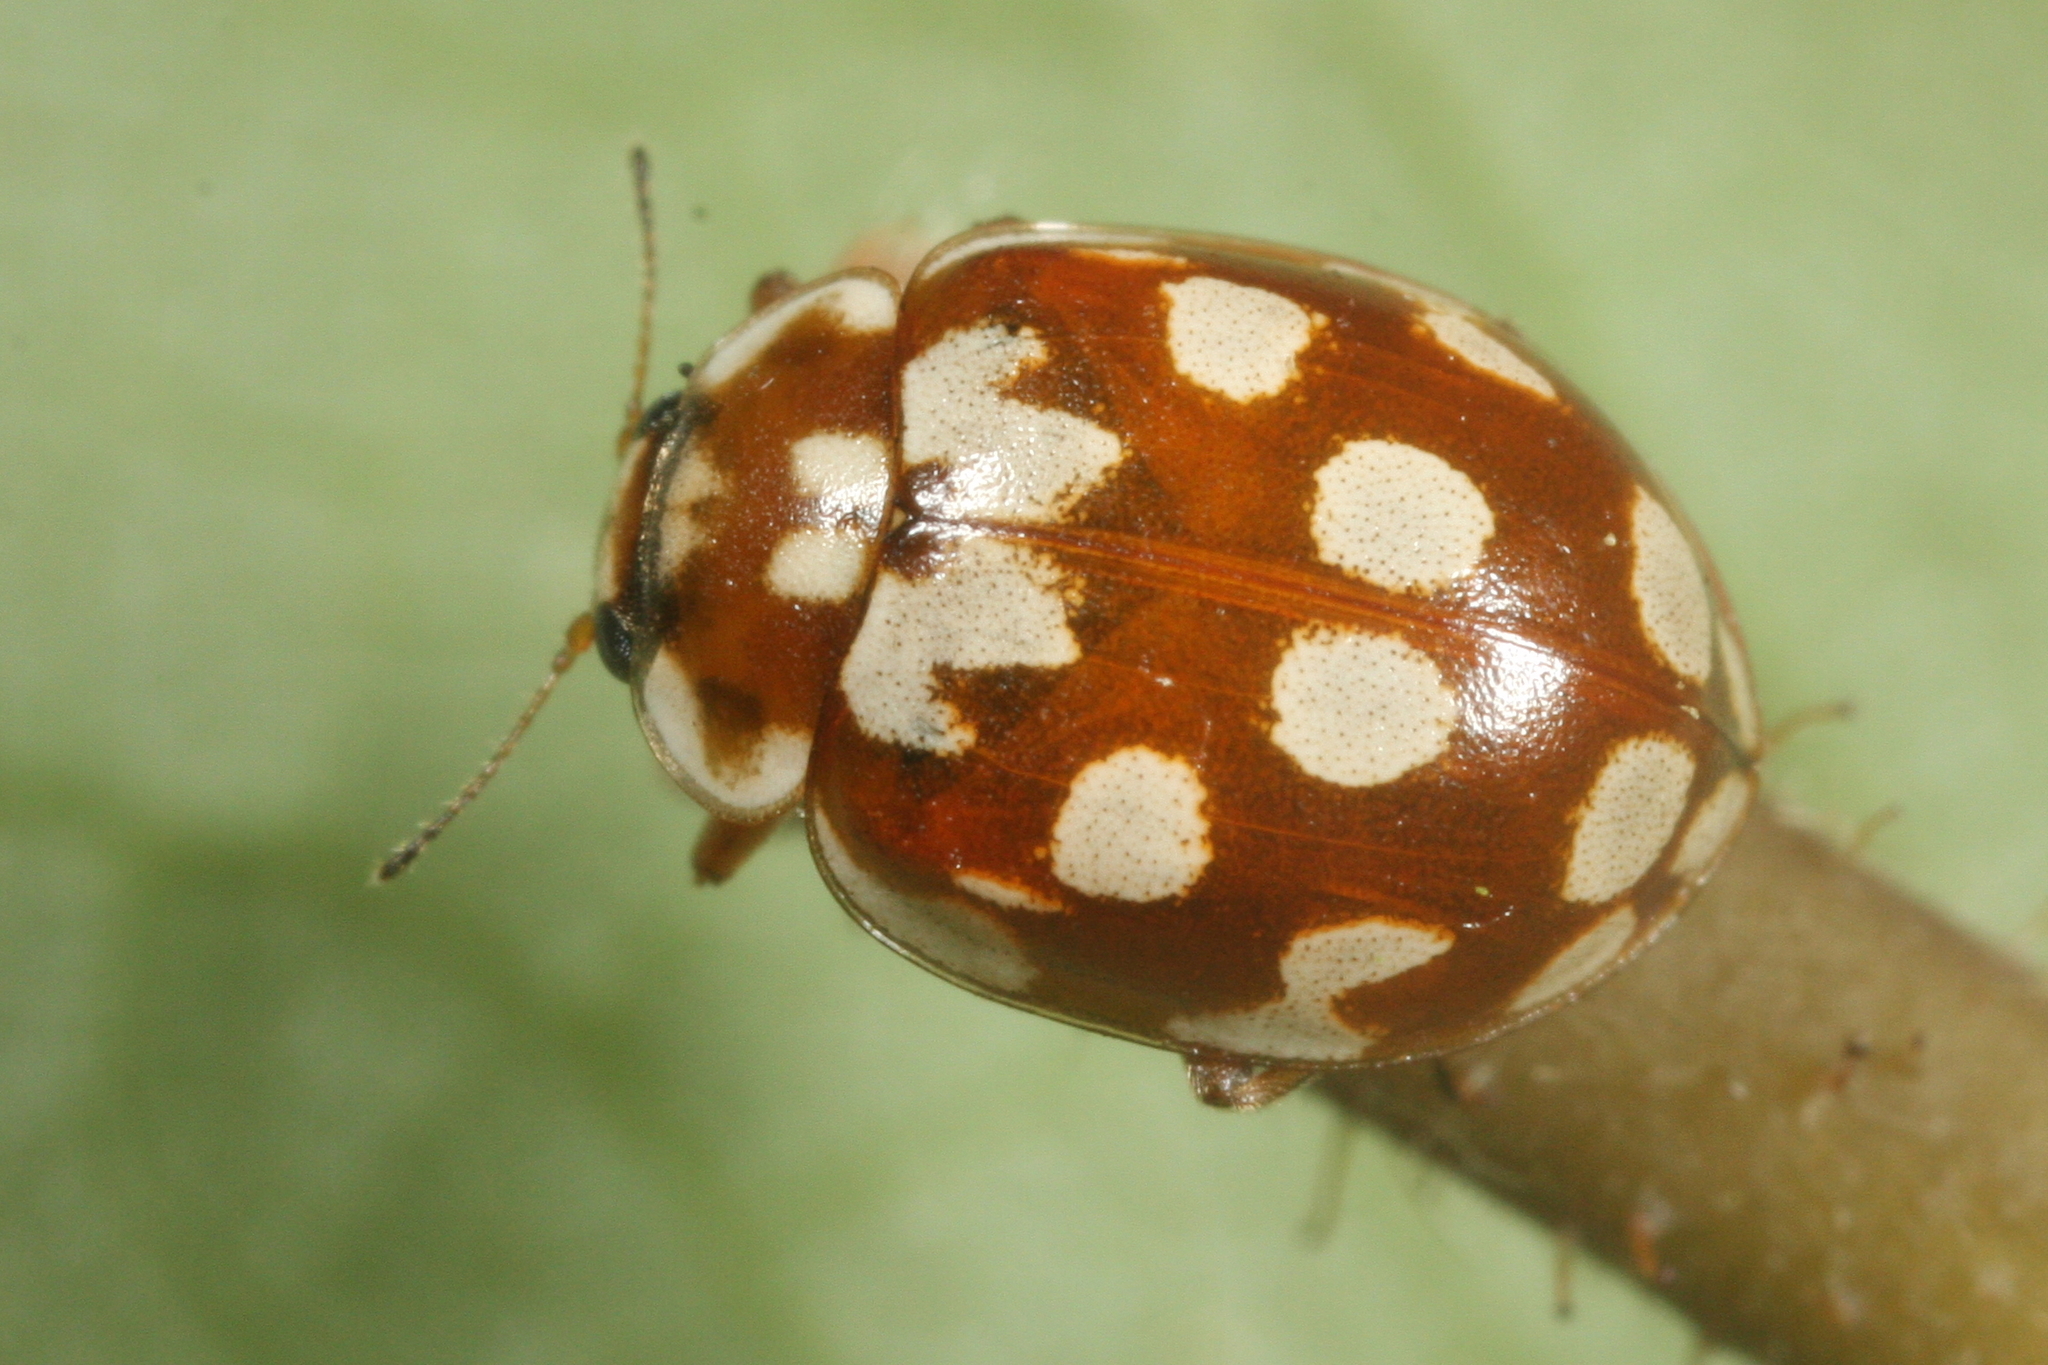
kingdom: Animalia
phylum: Arthropoda
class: Insecta
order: Coleoptera
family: Coccinellidae
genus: Myrrha
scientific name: Myrrha octodecimguttata
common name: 18-spot ladybird
